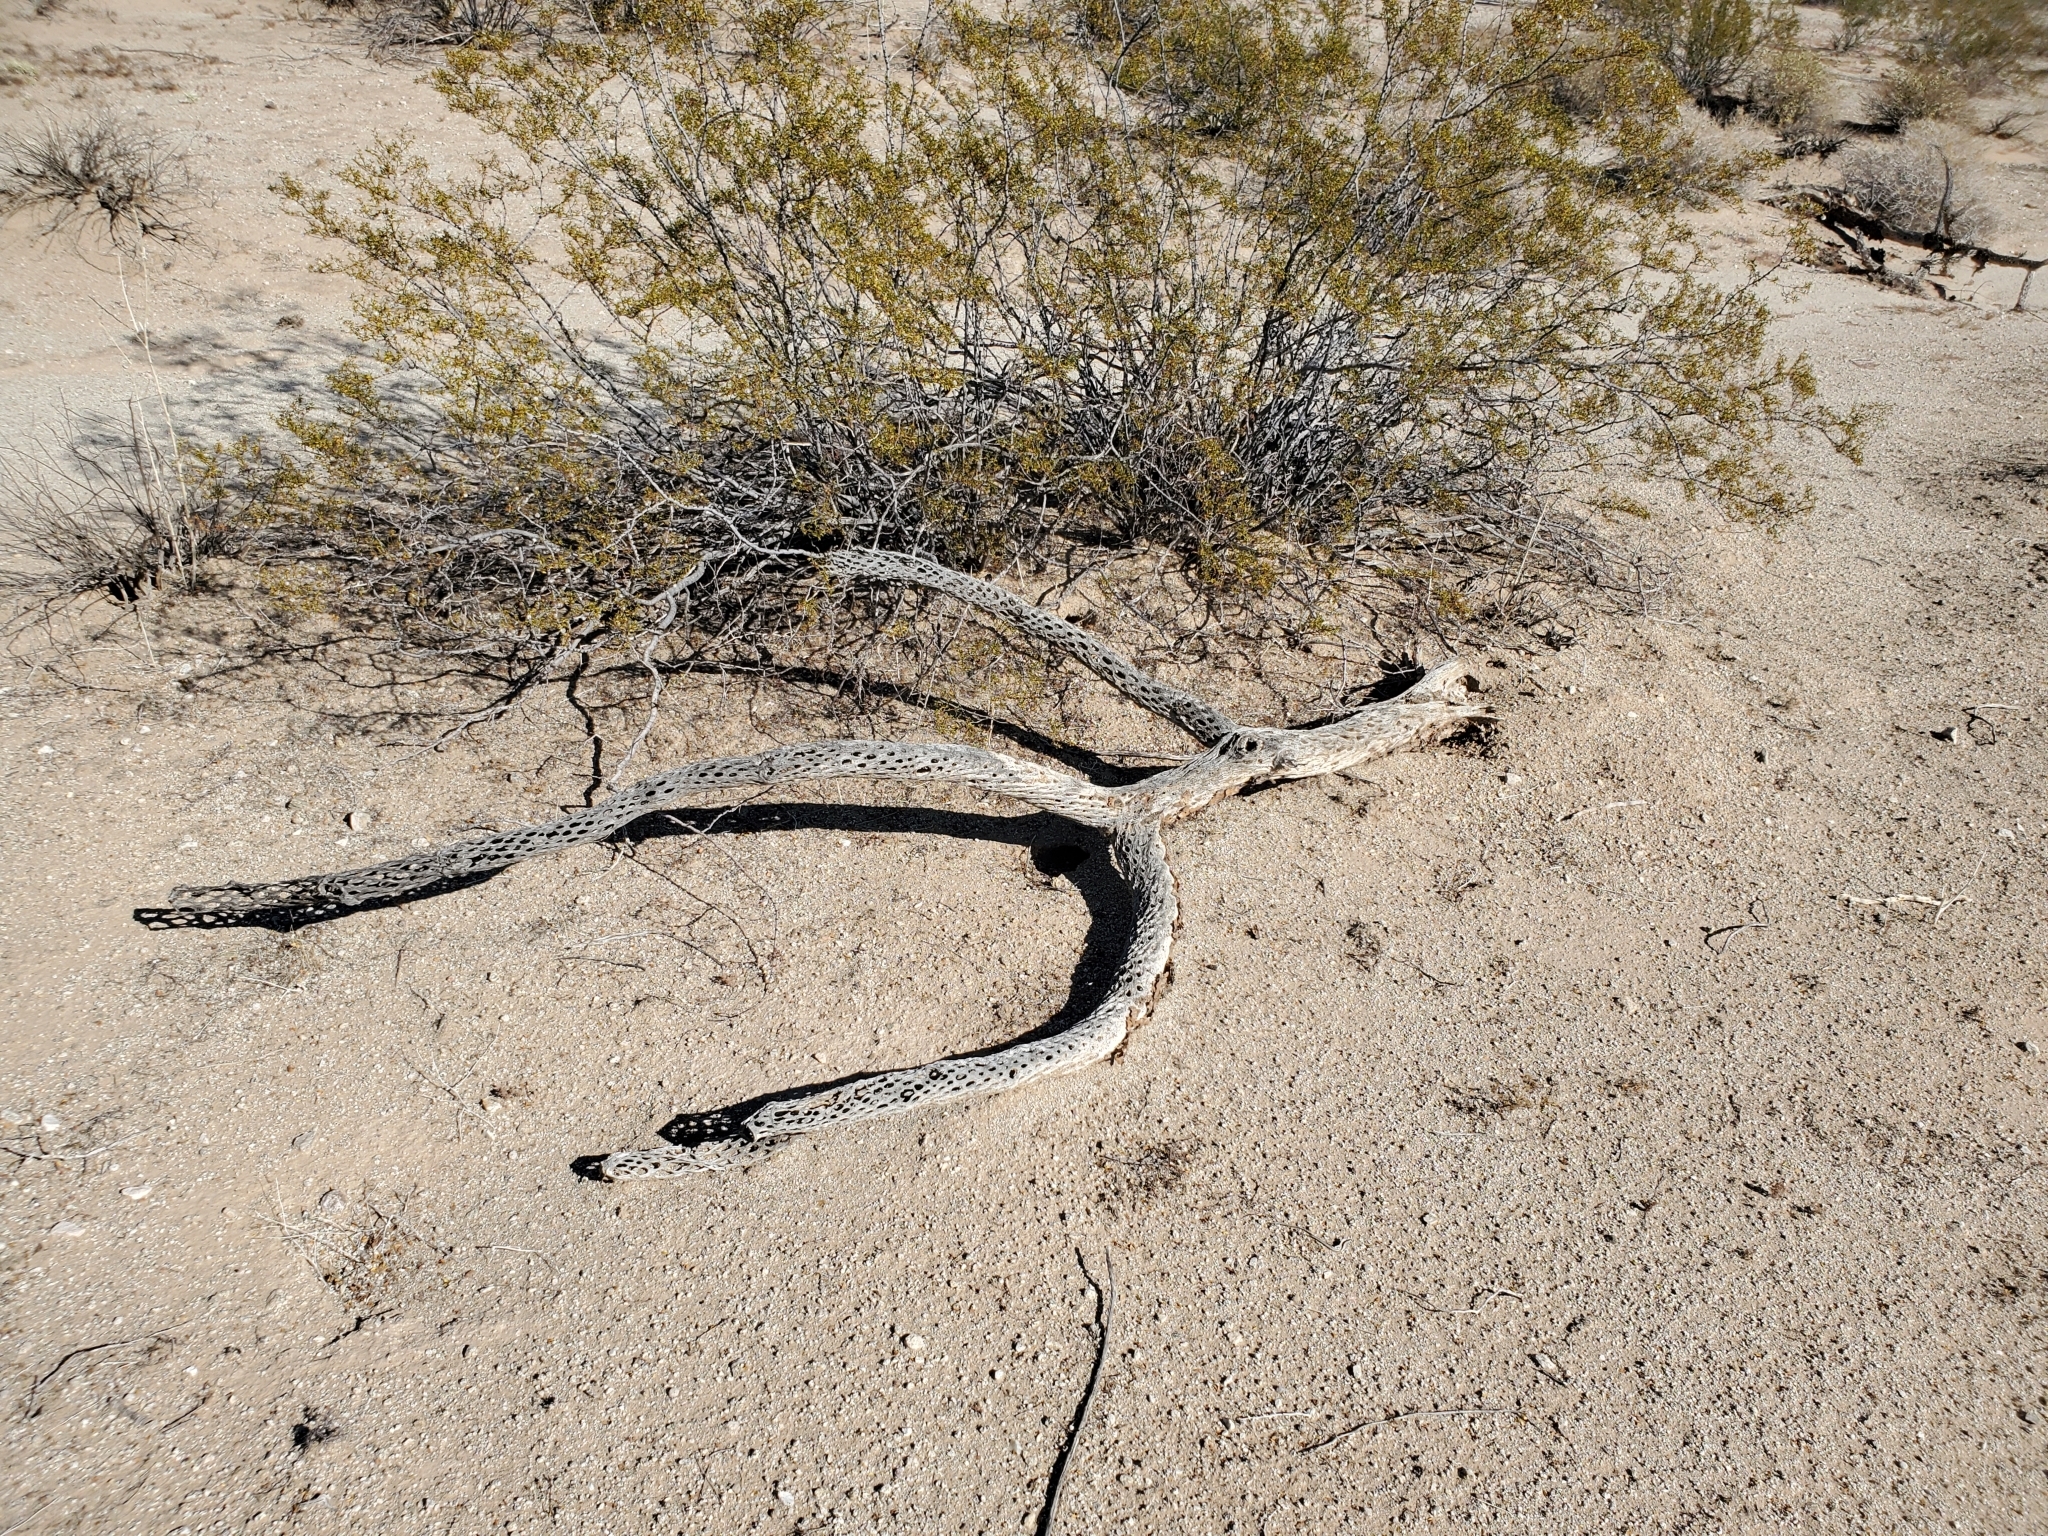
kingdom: Plantae
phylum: Tracheophyta
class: Magnoliopsida
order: Caryophyllales
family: Cactaceae
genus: Cylindropuntia
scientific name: Cylindropuntia fulgida
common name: Jumping cholla
